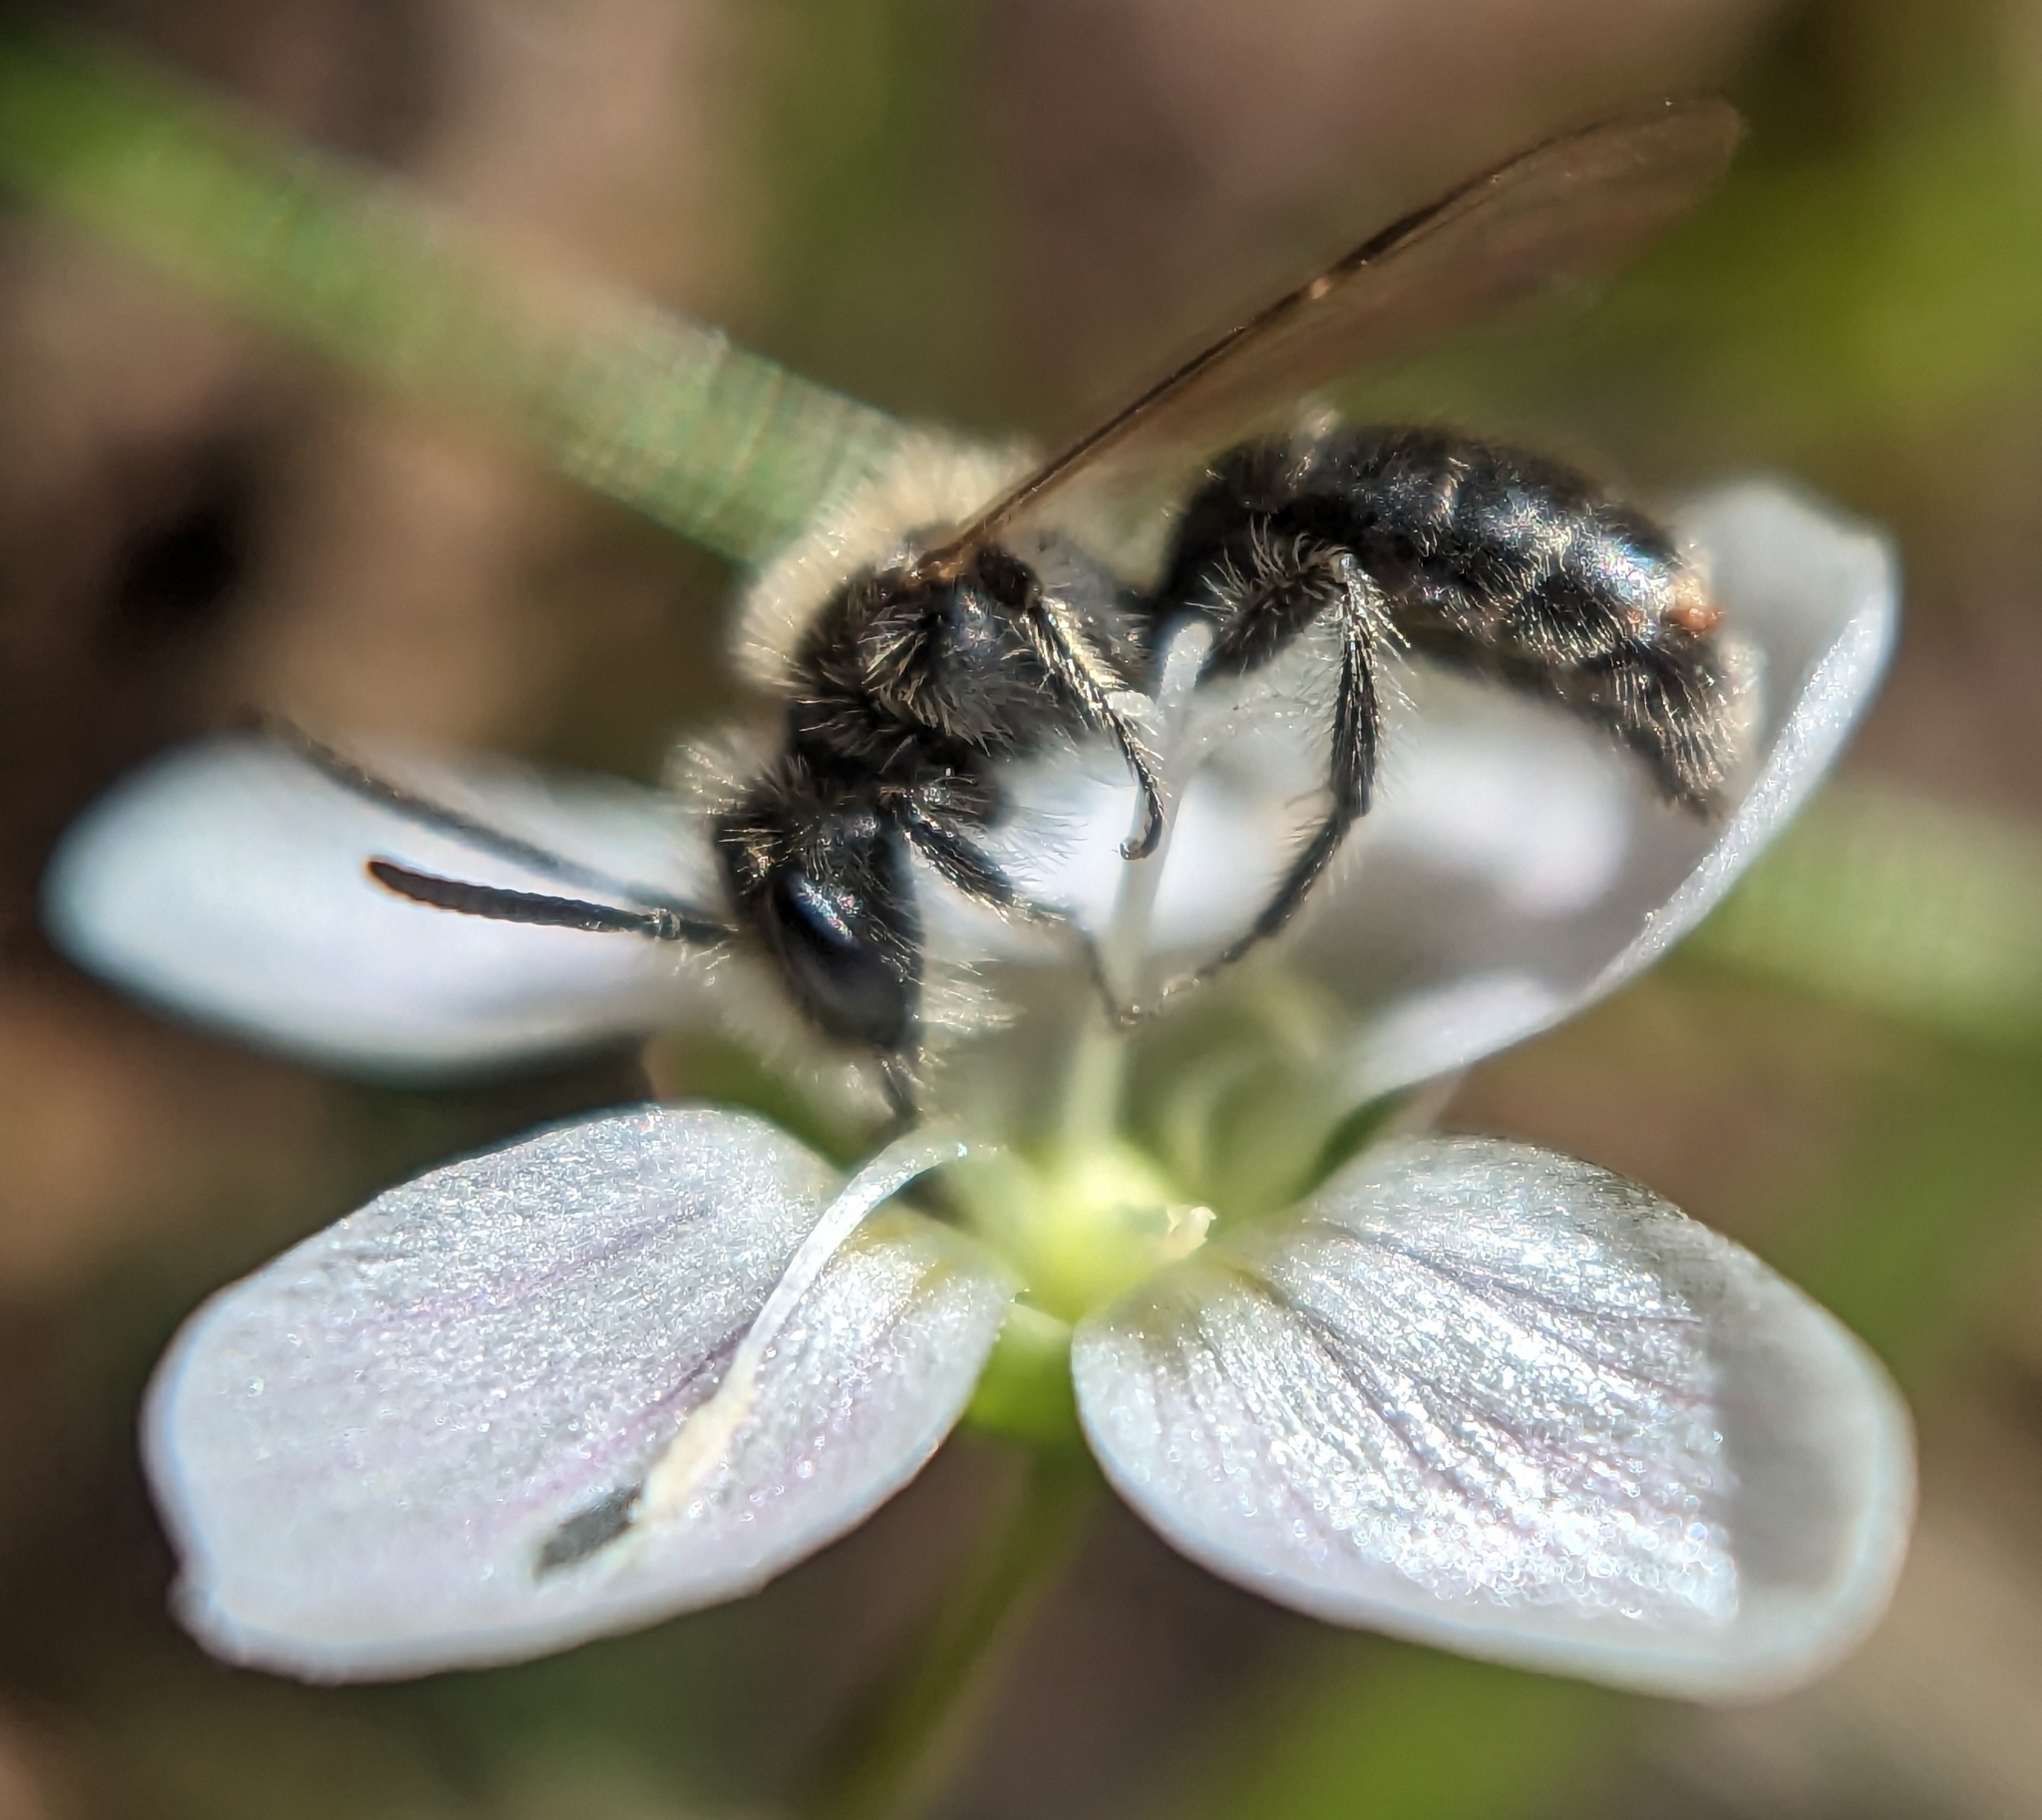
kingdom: Animalia
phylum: Arthropoda
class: Insecta
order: Hymenoptera
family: Andrenidae
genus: Andrena
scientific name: Andrena erigeniae
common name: Spring beauty miner
